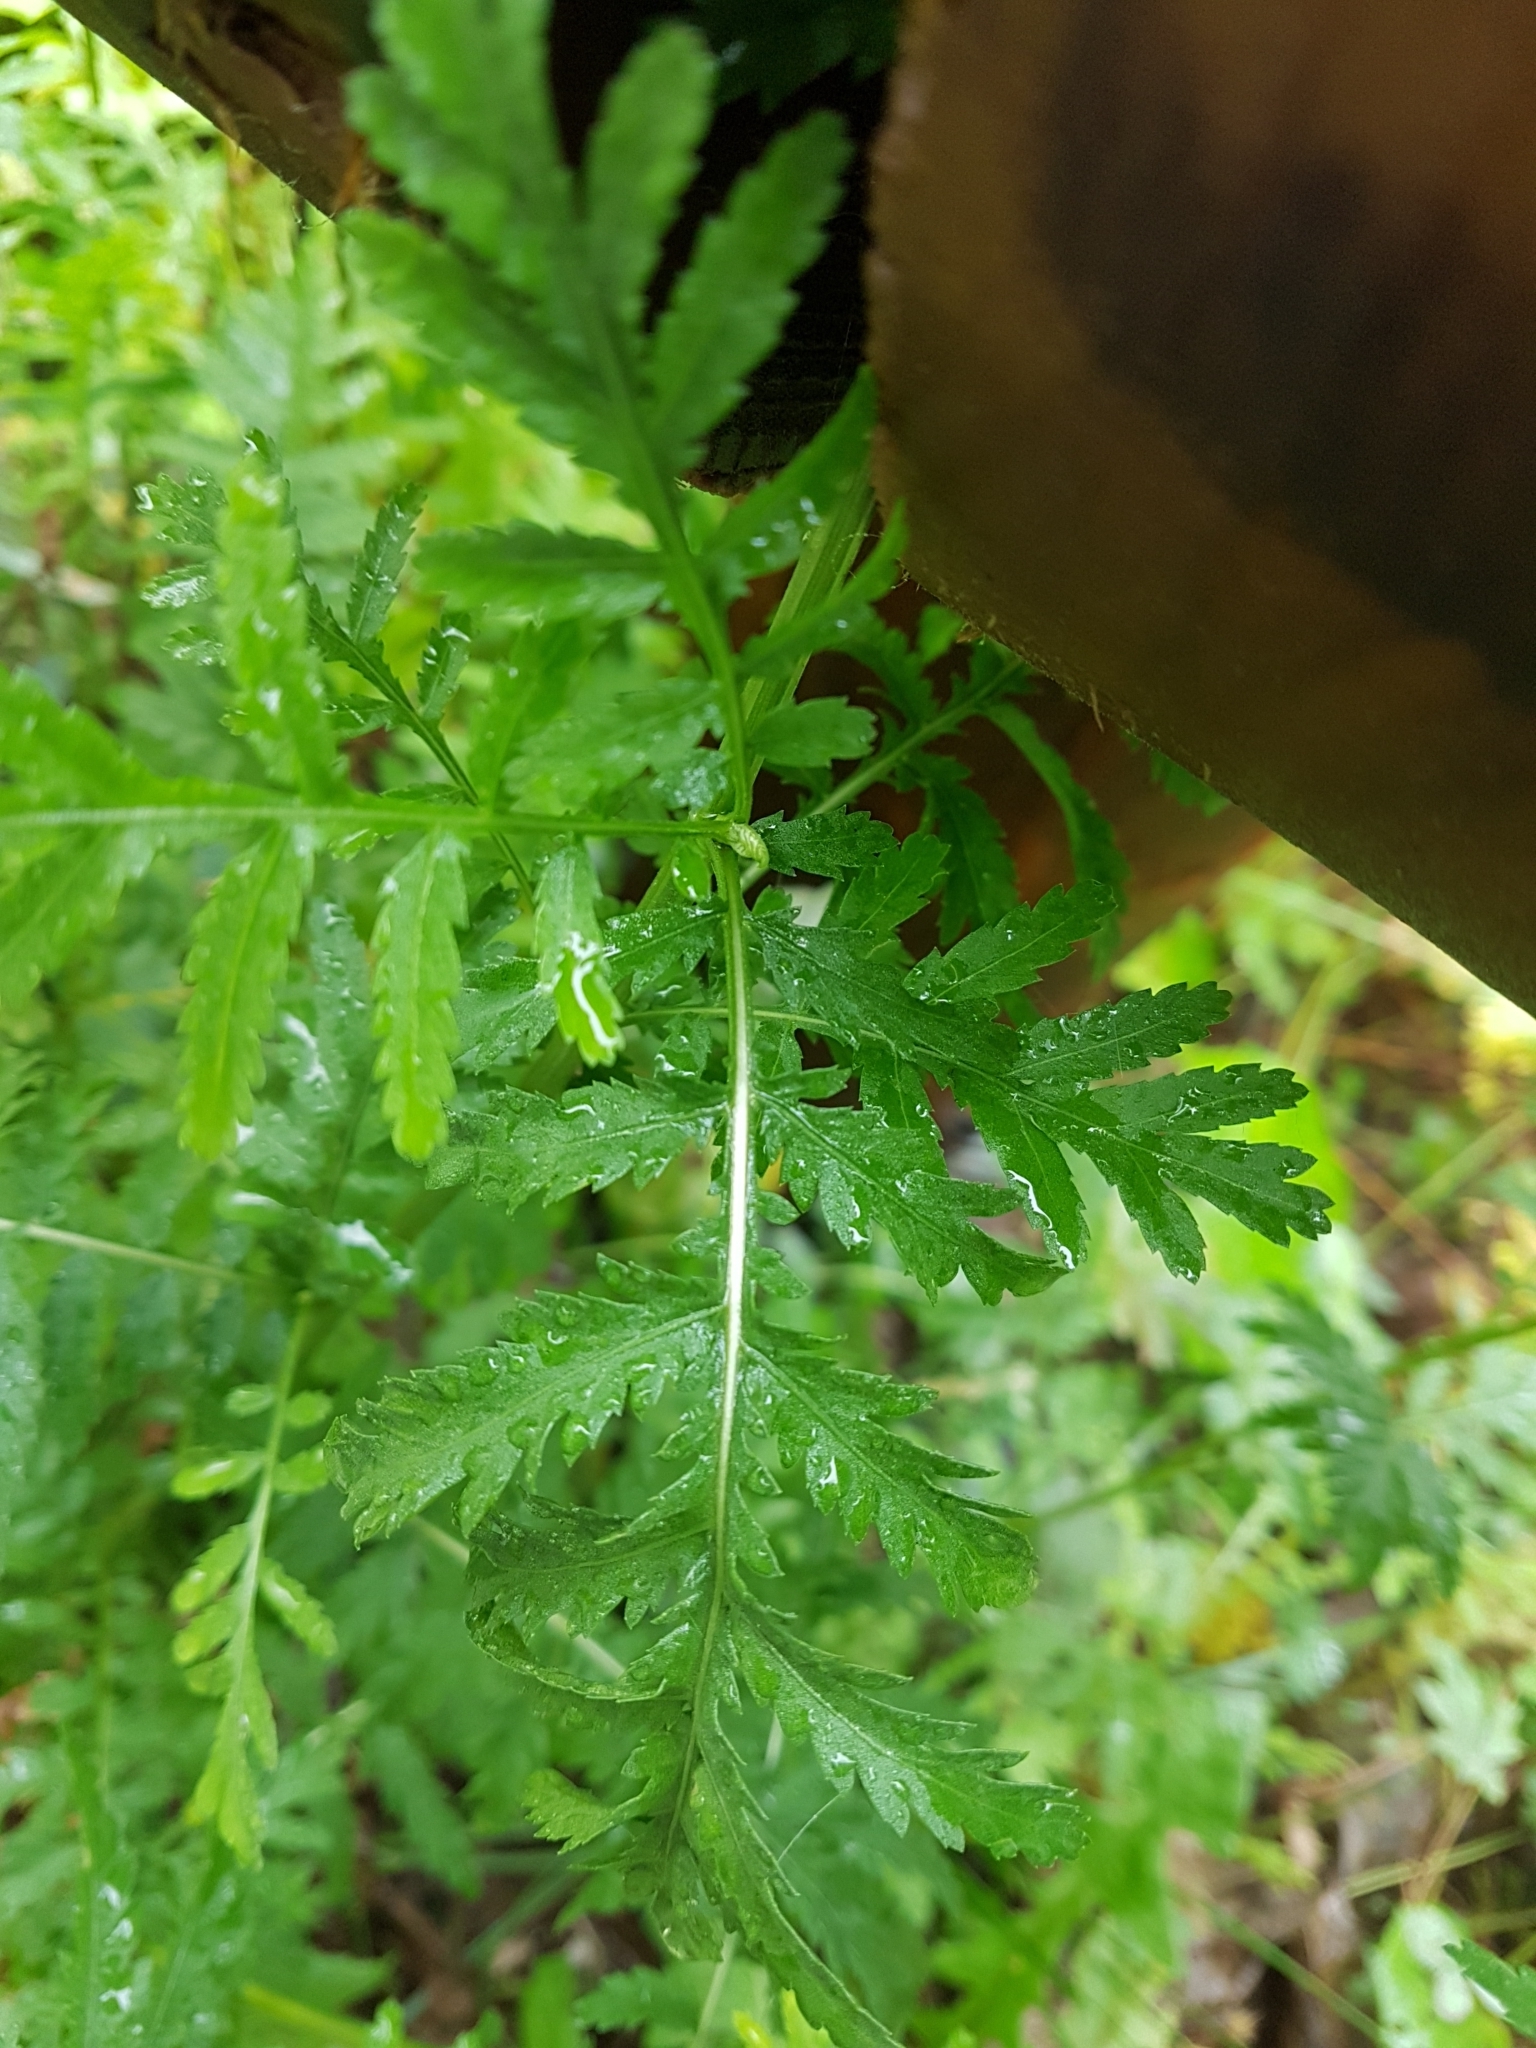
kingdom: Plantae
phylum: Tracheophyta
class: Magnoliopsida
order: Asterales
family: Asteraceae
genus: Tanacetum
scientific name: Tanacetum vulgare
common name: Common tansy
